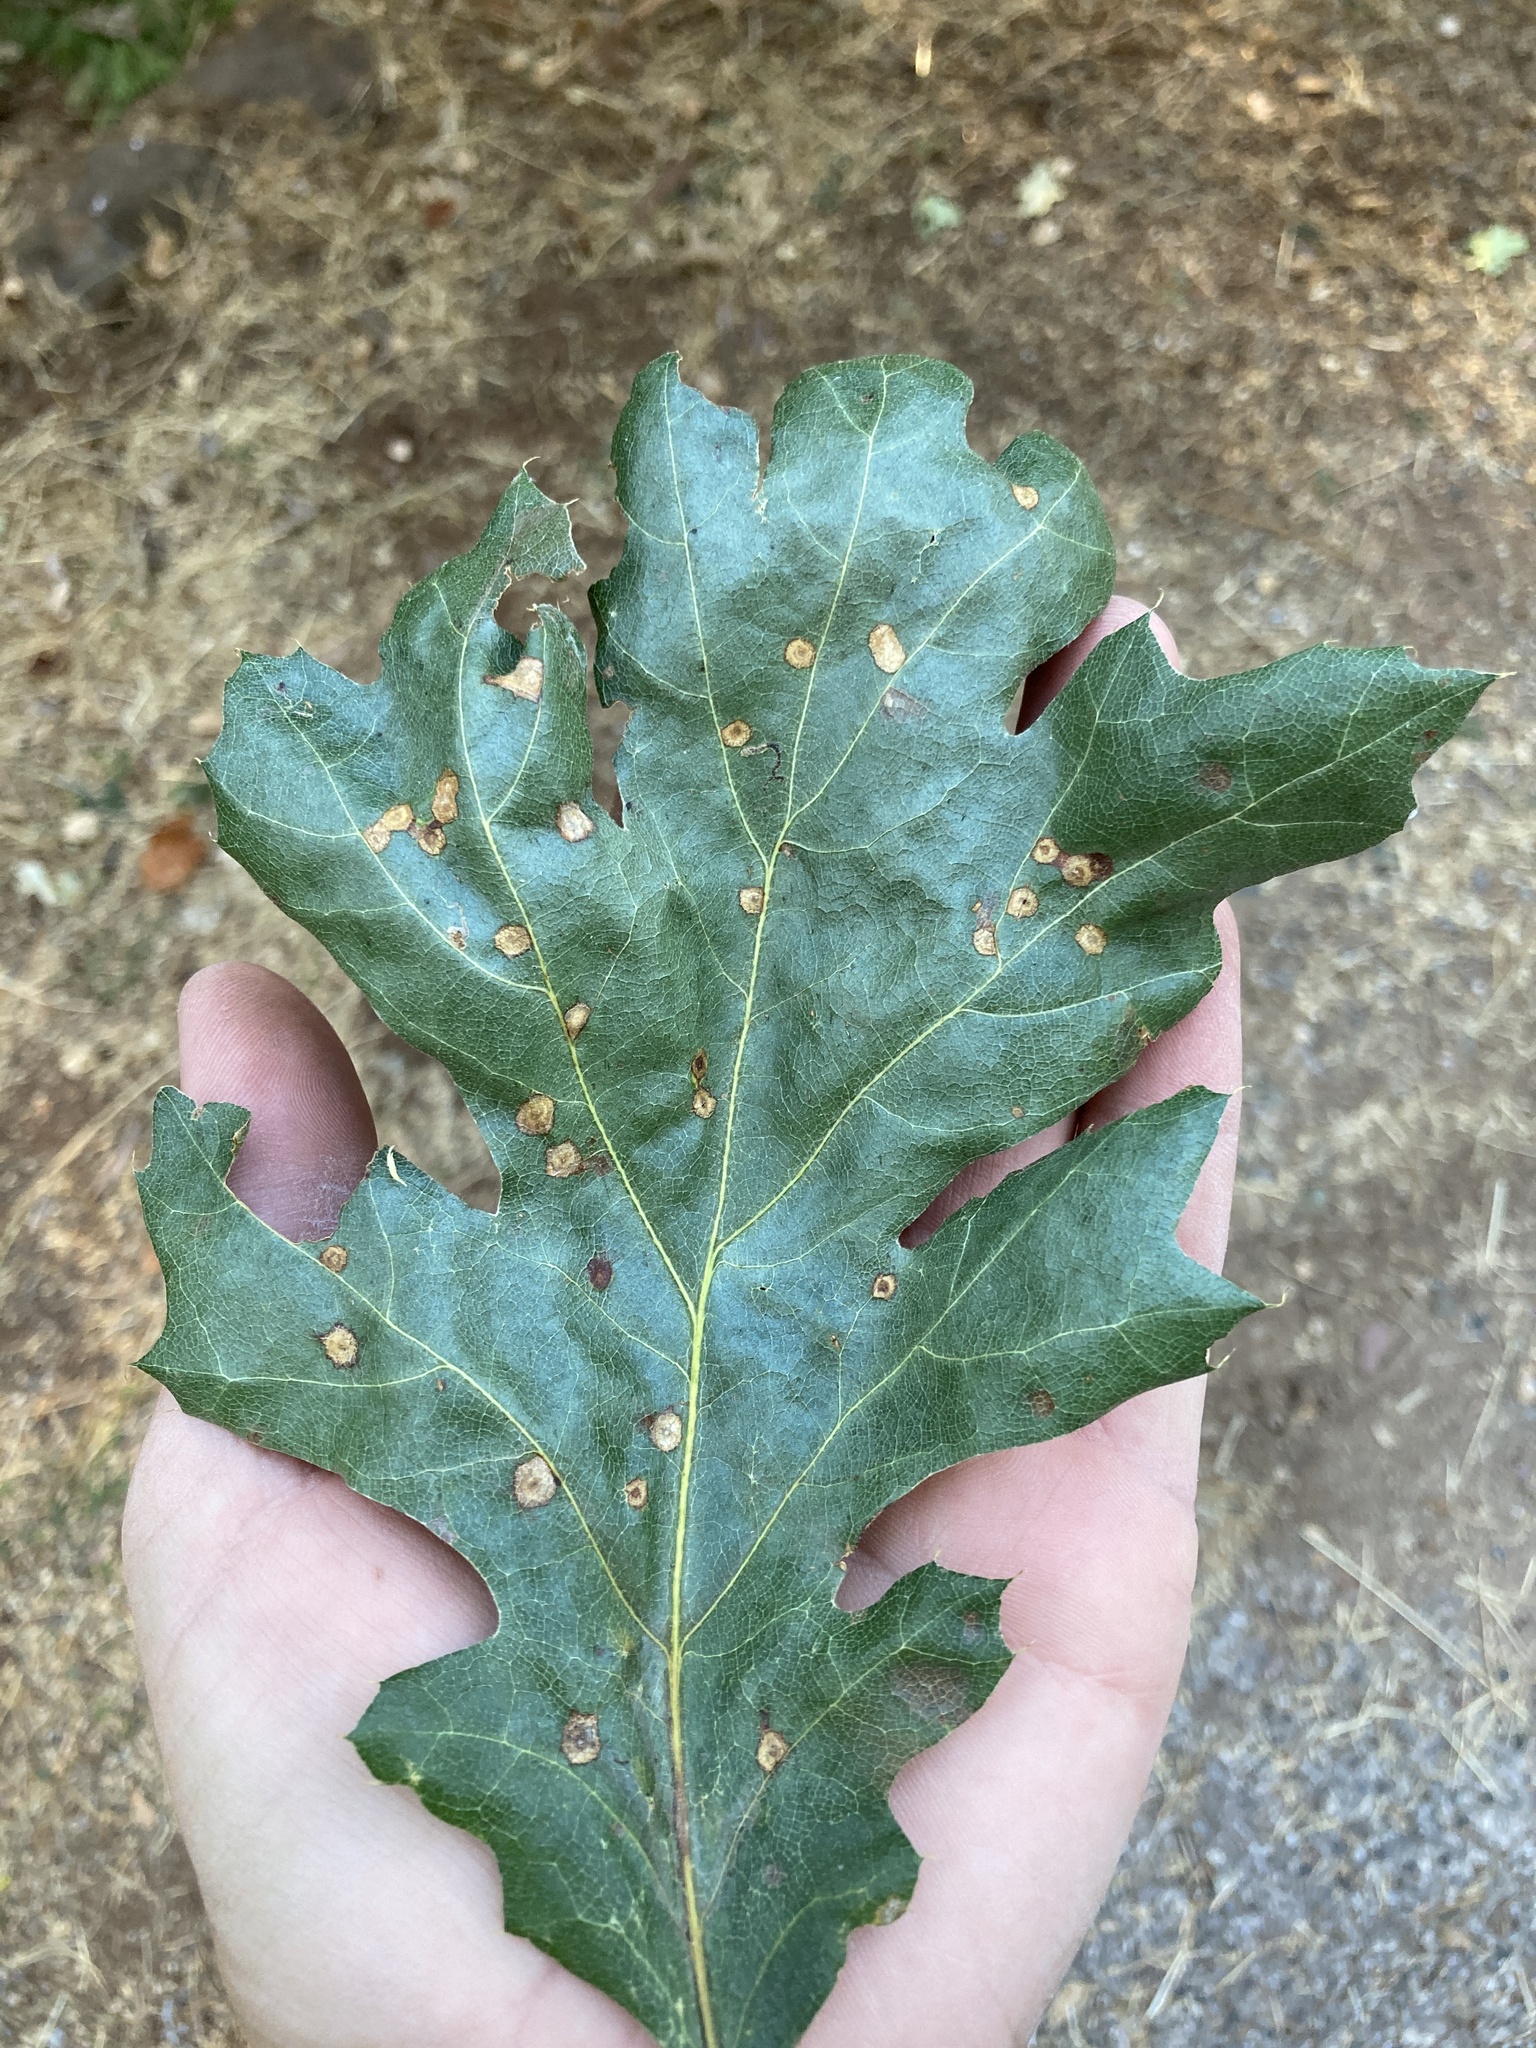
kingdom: Plantae
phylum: Tracheophyta
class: Magnoliopsida
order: Fagales
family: Fagaceae
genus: Quercus
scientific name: Quercus kelloggii
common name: California black oak
